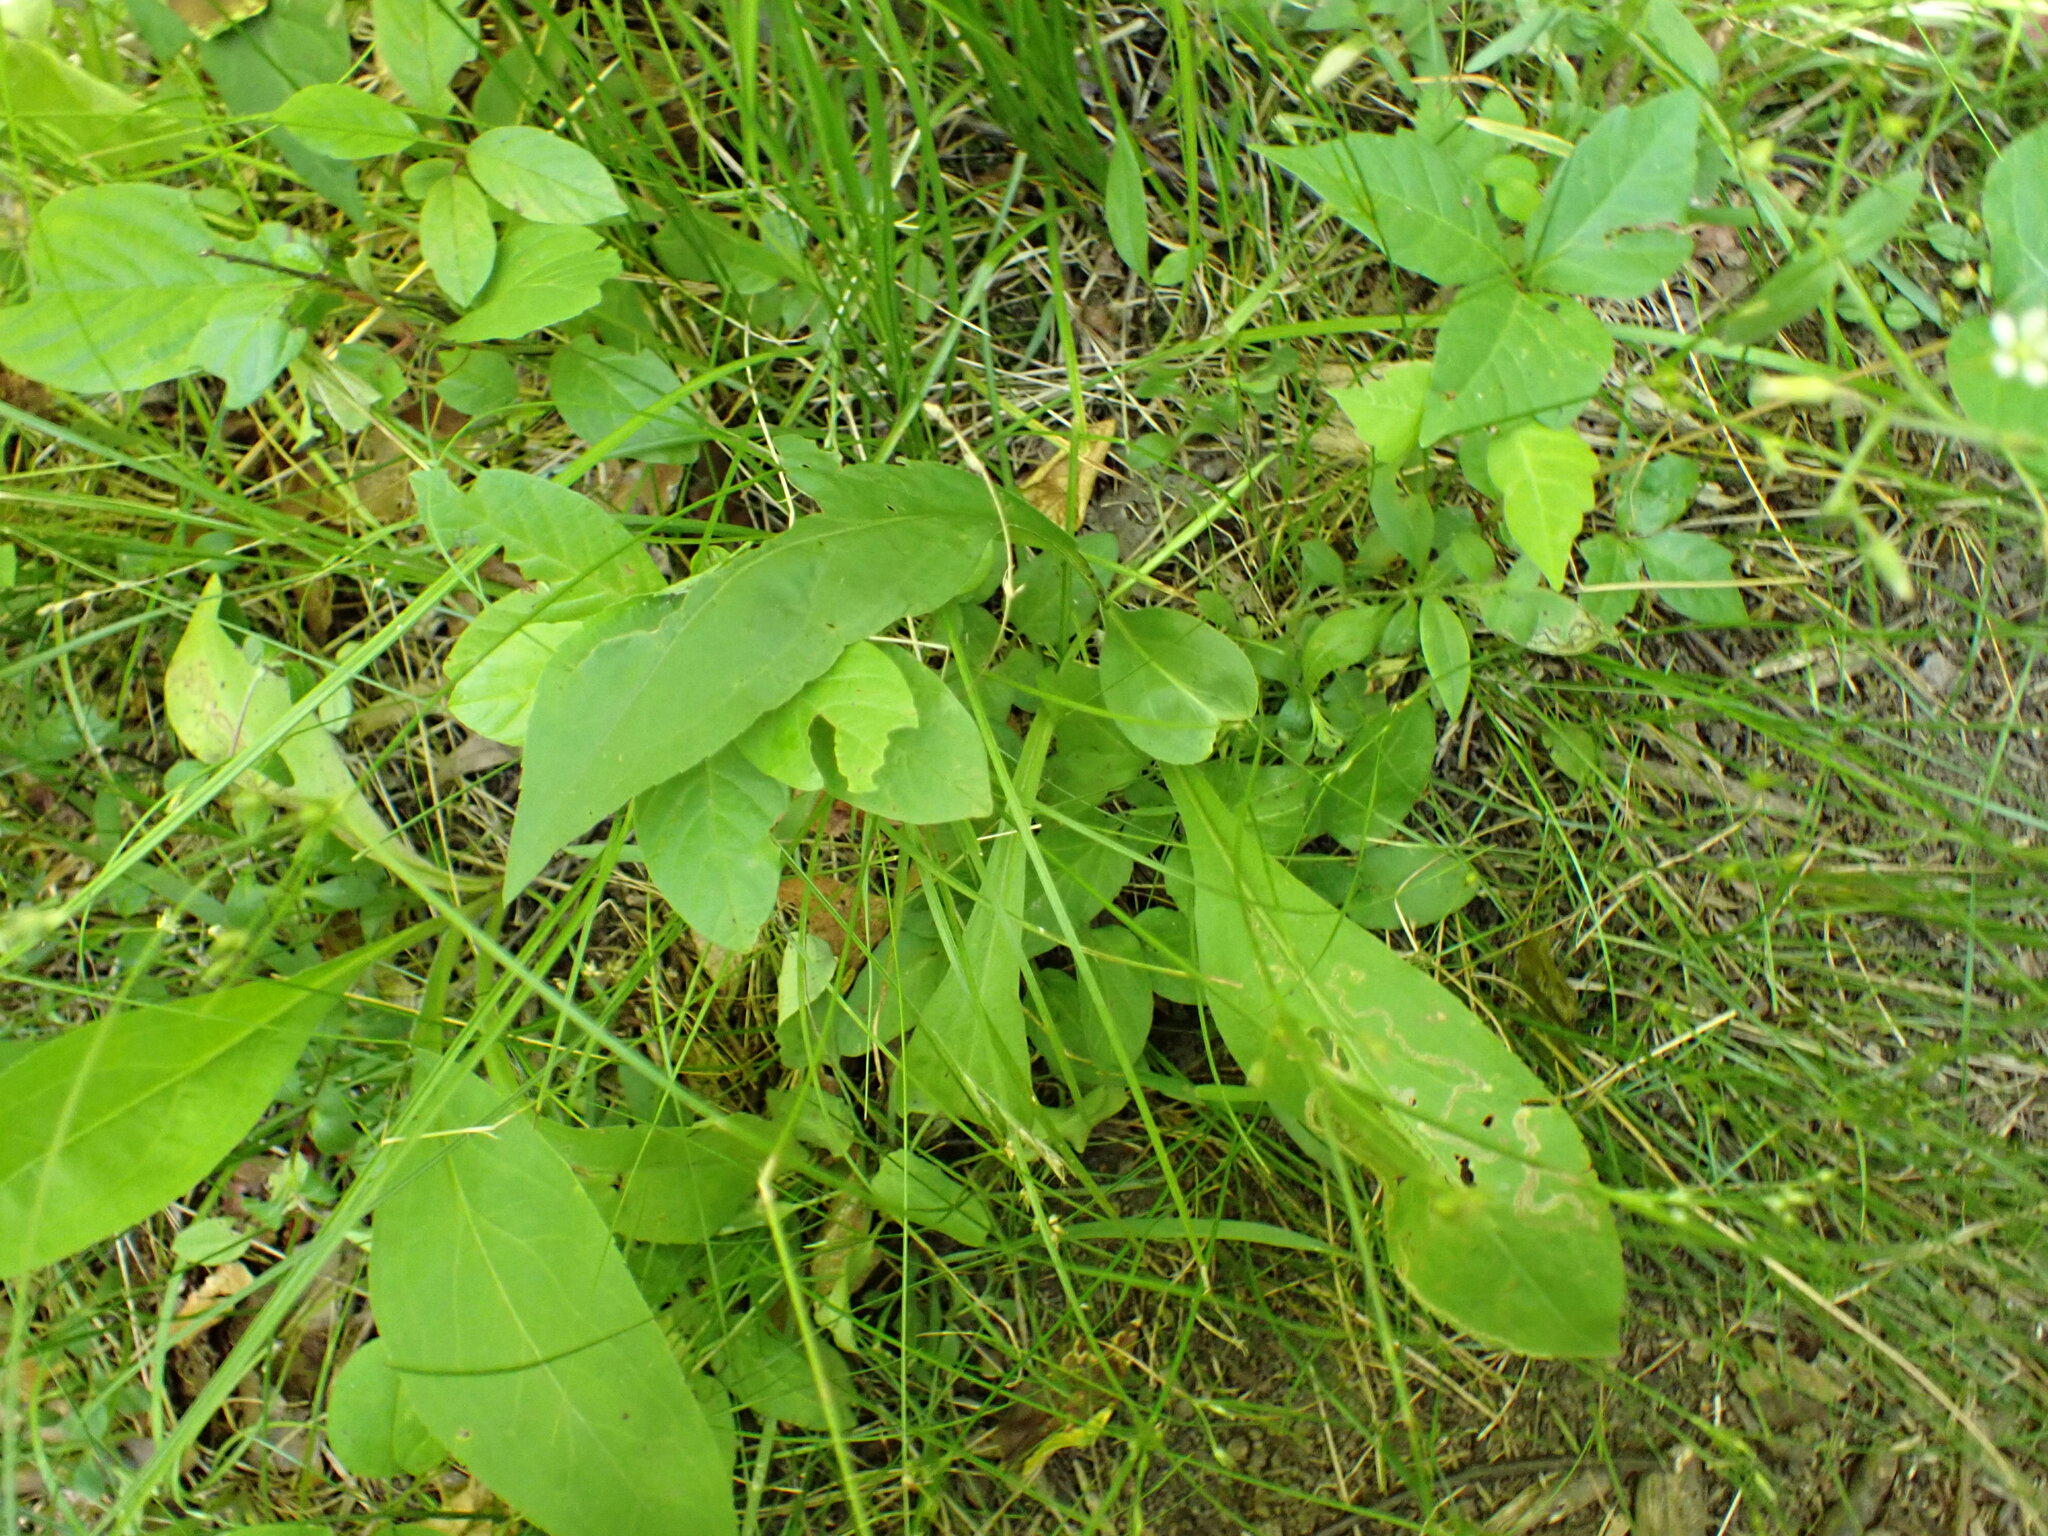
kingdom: Animalia
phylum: Arthropoda
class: Insecta
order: Diptera
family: Agromyzidae
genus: Liriomyza
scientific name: Liriomyza eupatorii
